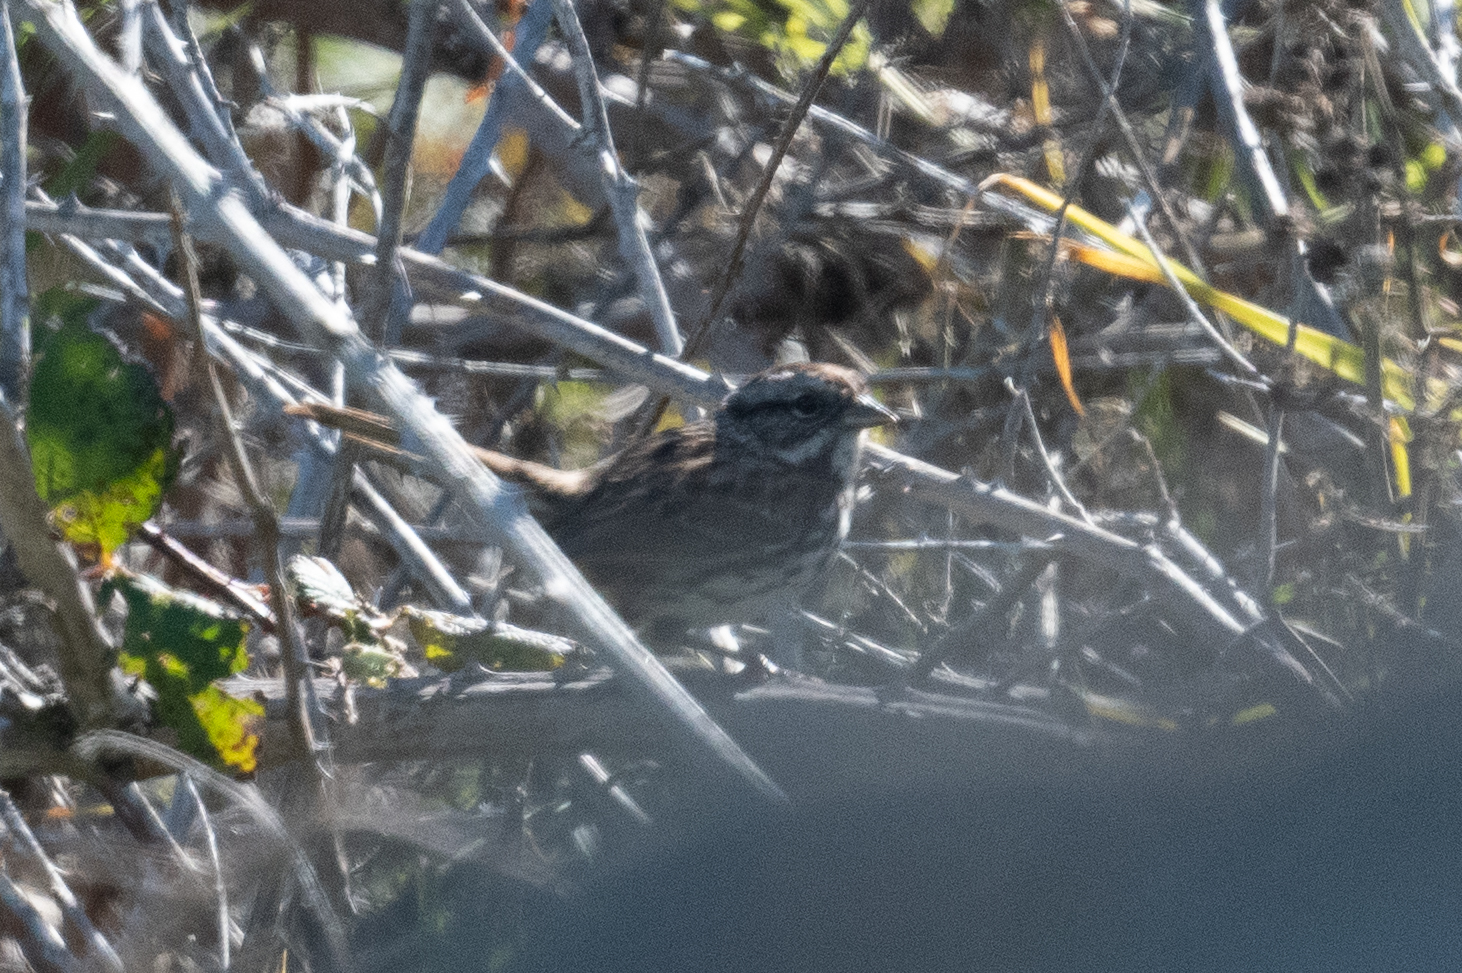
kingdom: Animalia
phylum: Chordata
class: Aves
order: Passeriformes
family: Passerellidae
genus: Melospiza
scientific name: Melospiza melodia
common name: Song sparrow
